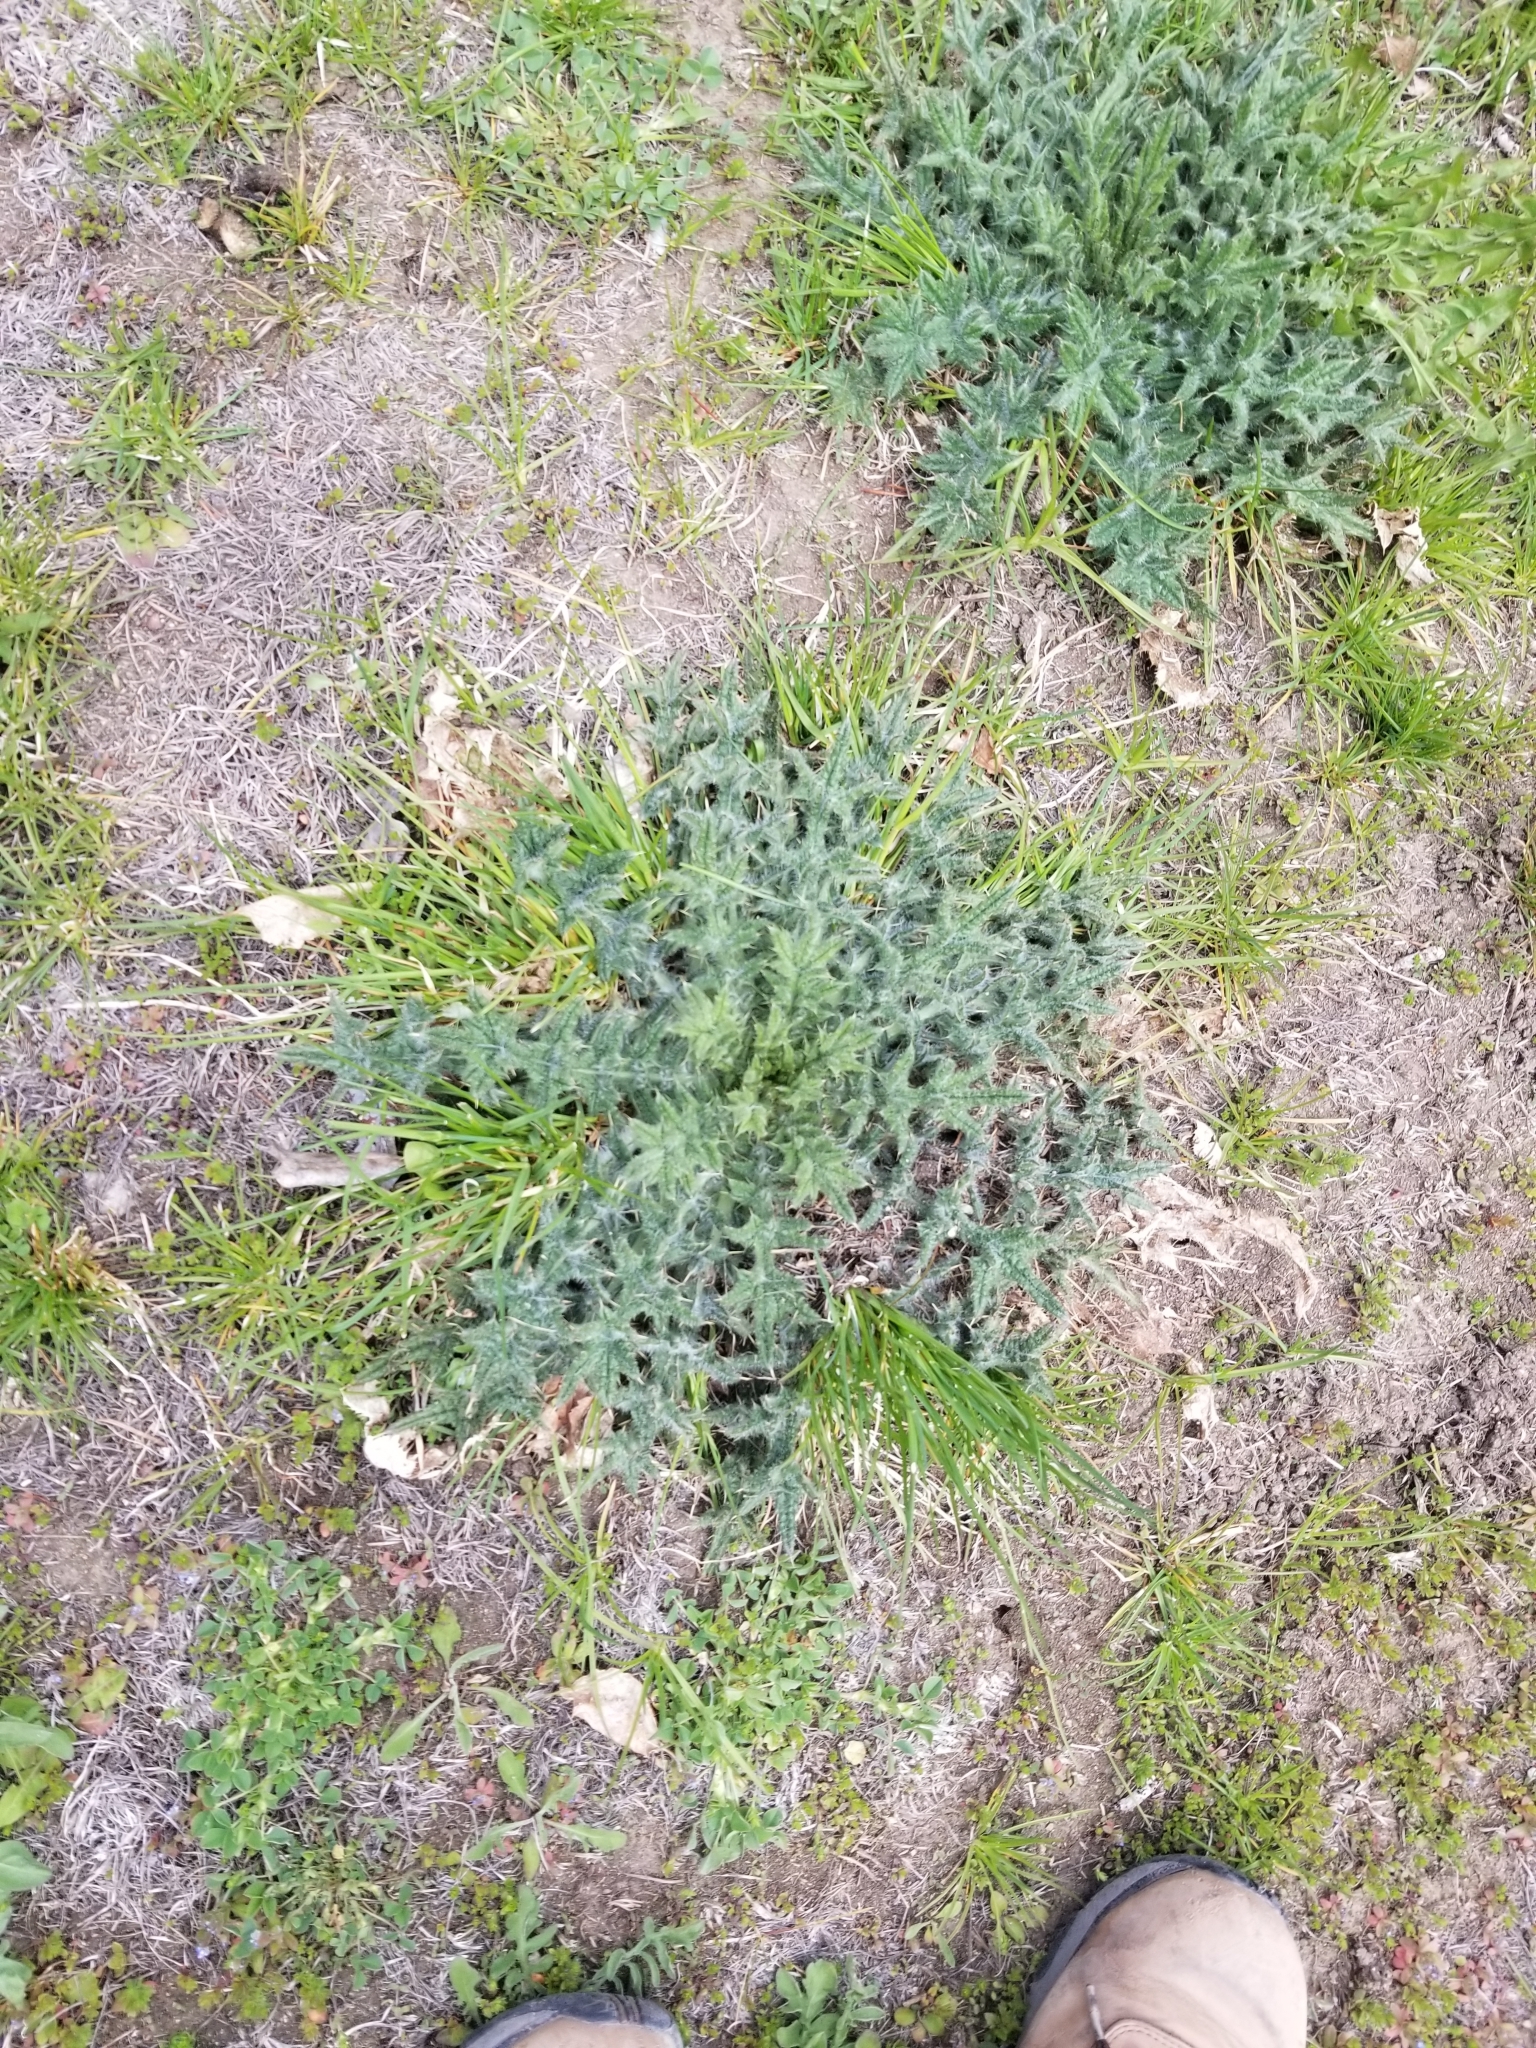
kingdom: Plantae
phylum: Tracheophyta
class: Magnoliopsida
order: Asterales
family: Asteraceae
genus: Cirsium
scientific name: Cirsium vulgare
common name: Bull thistle
